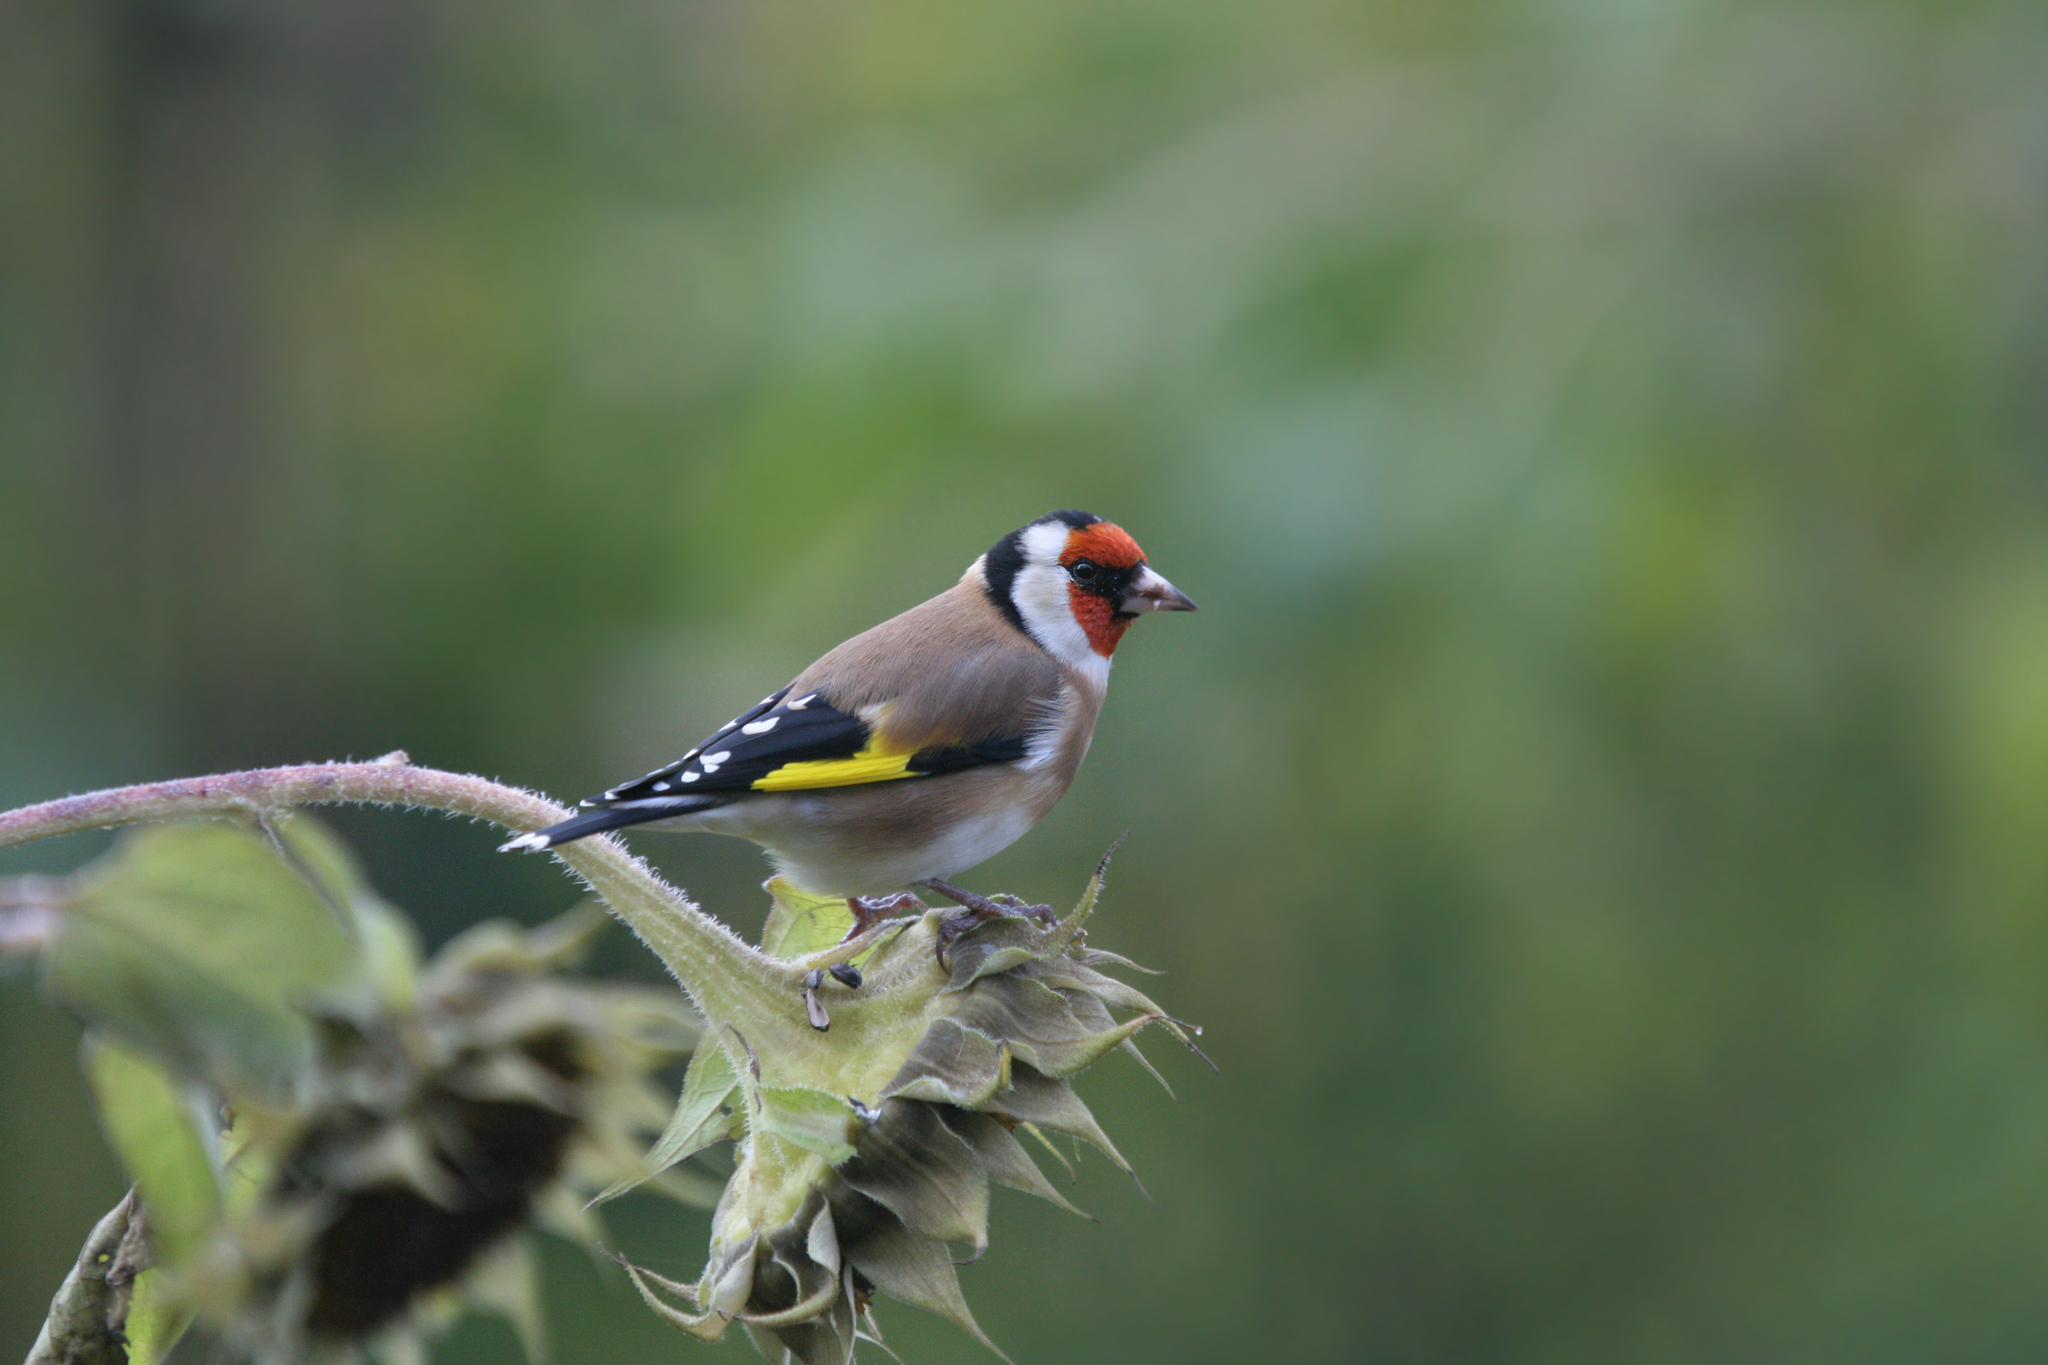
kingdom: Animalia
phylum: Chordata
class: Aves
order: Passeriformes
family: Fringillidae
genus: Carduelis
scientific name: Carduelis carduelis
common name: European goldfinch
